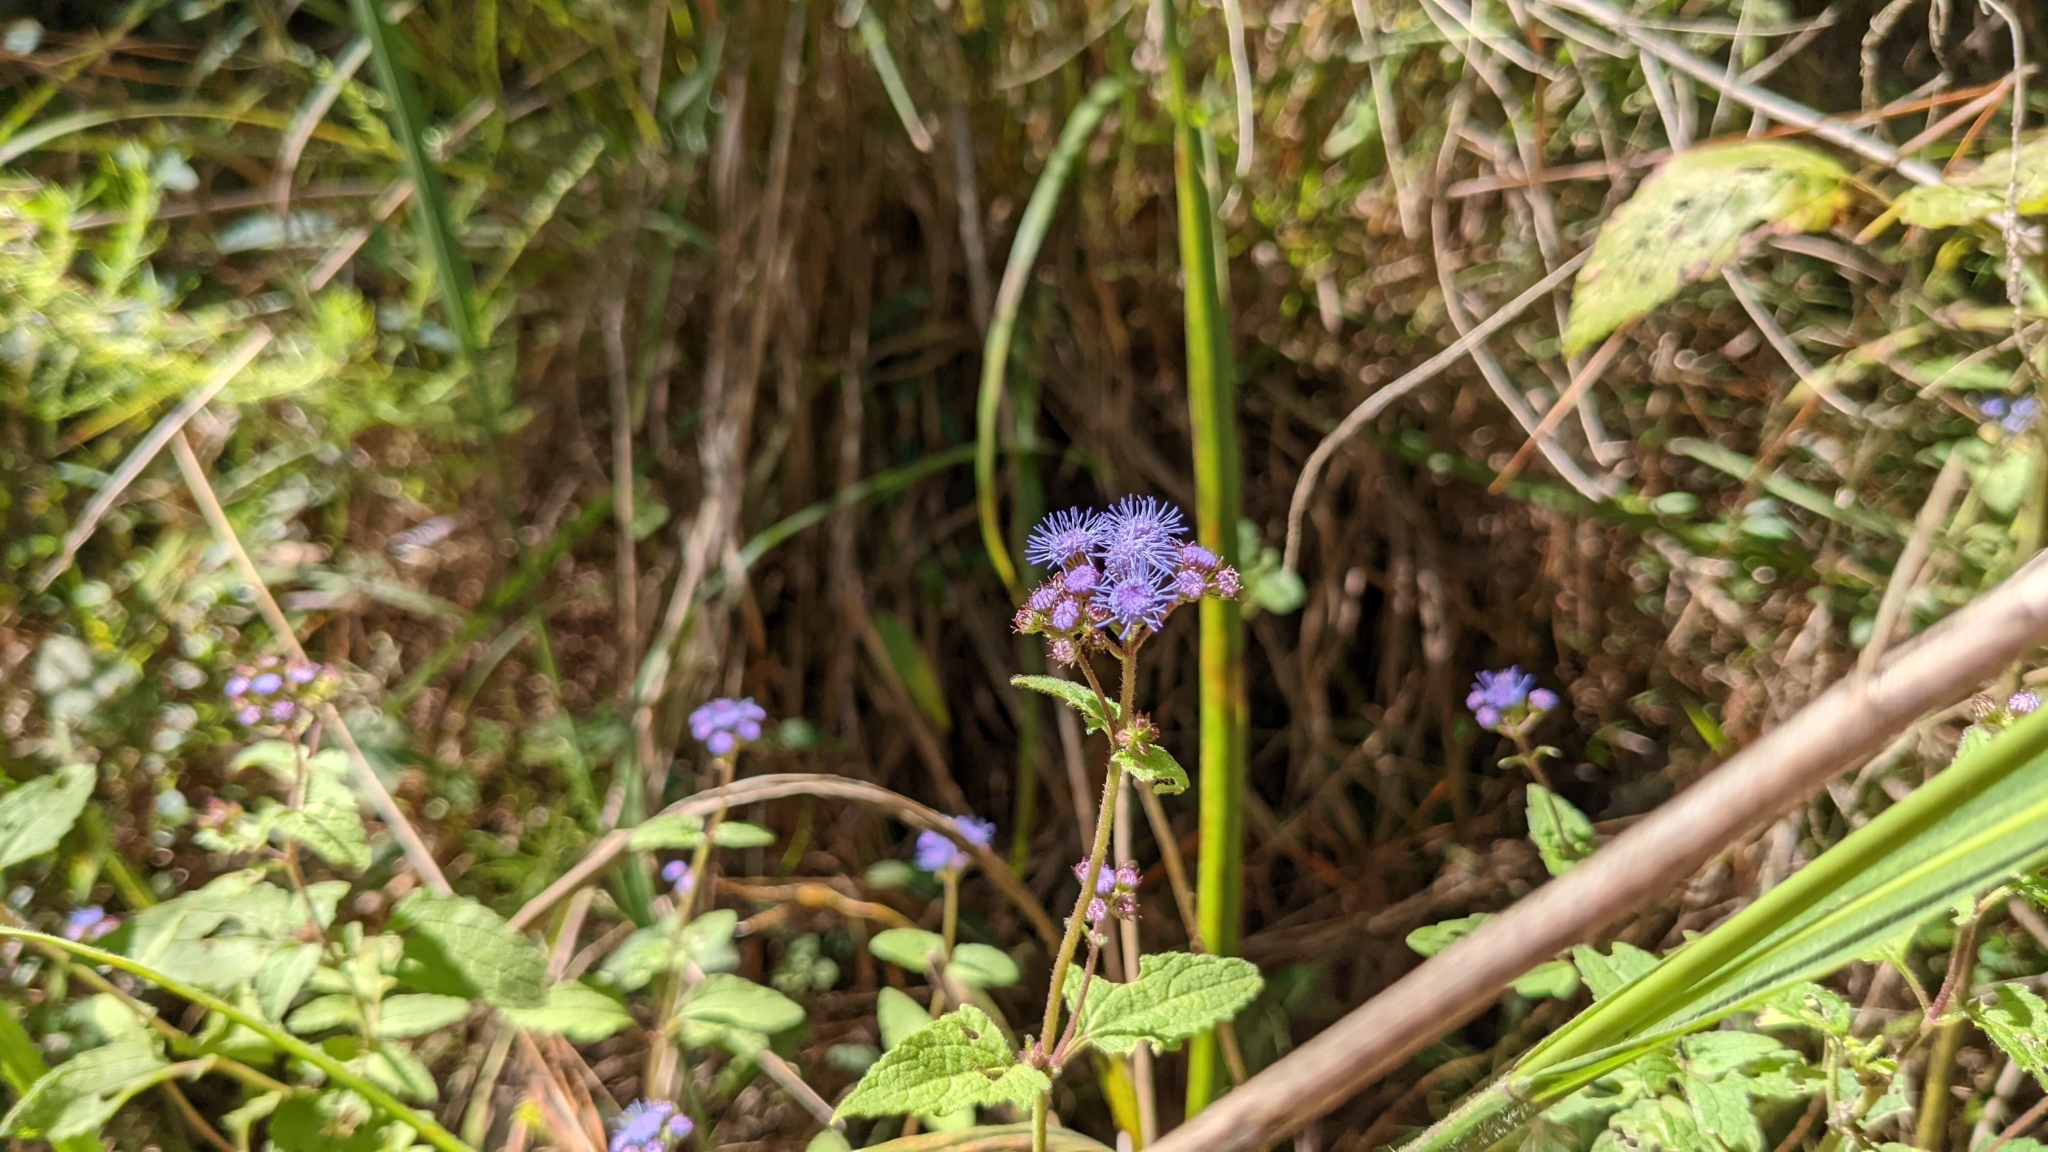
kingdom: Plantae
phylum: Tracheophyta
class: Magnoliopsida
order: Asterales
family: Asteraceae
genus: Conoclinium
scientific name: Conoclinium coelestinum
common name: Blue mistflower
